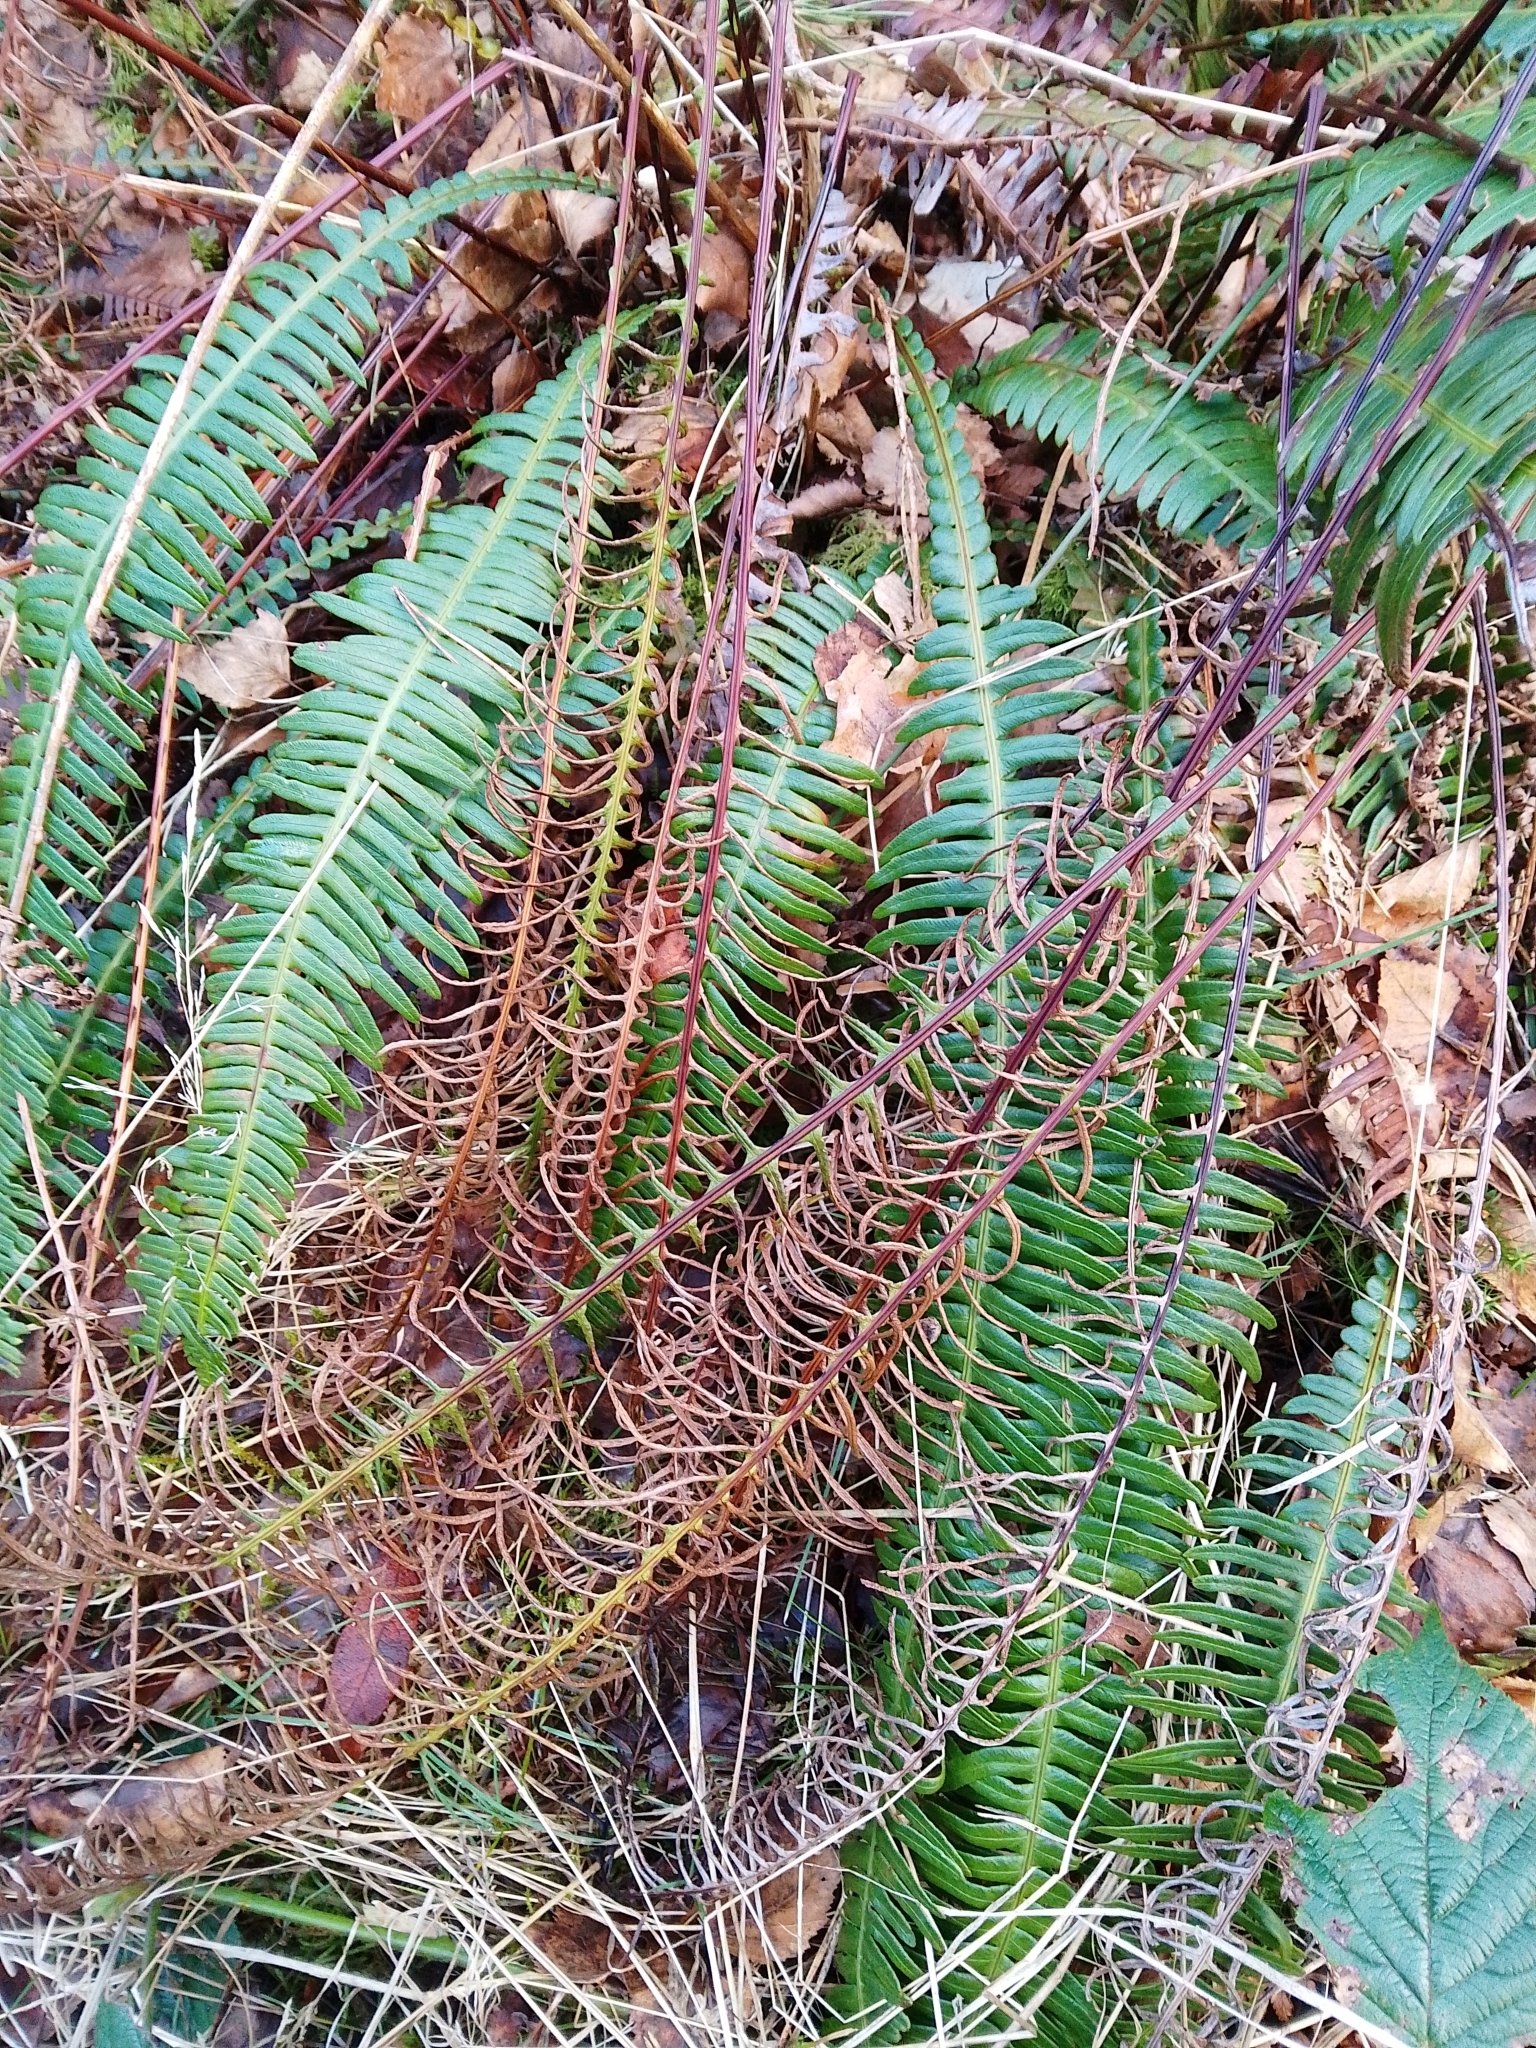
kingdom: Plantae
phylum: Tracheophyta
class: Polypodiopsida
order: Polypodiales
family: Blechnaceae
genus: Struthiopteris
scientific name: Struthiopteris spicant
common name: Deer fern
